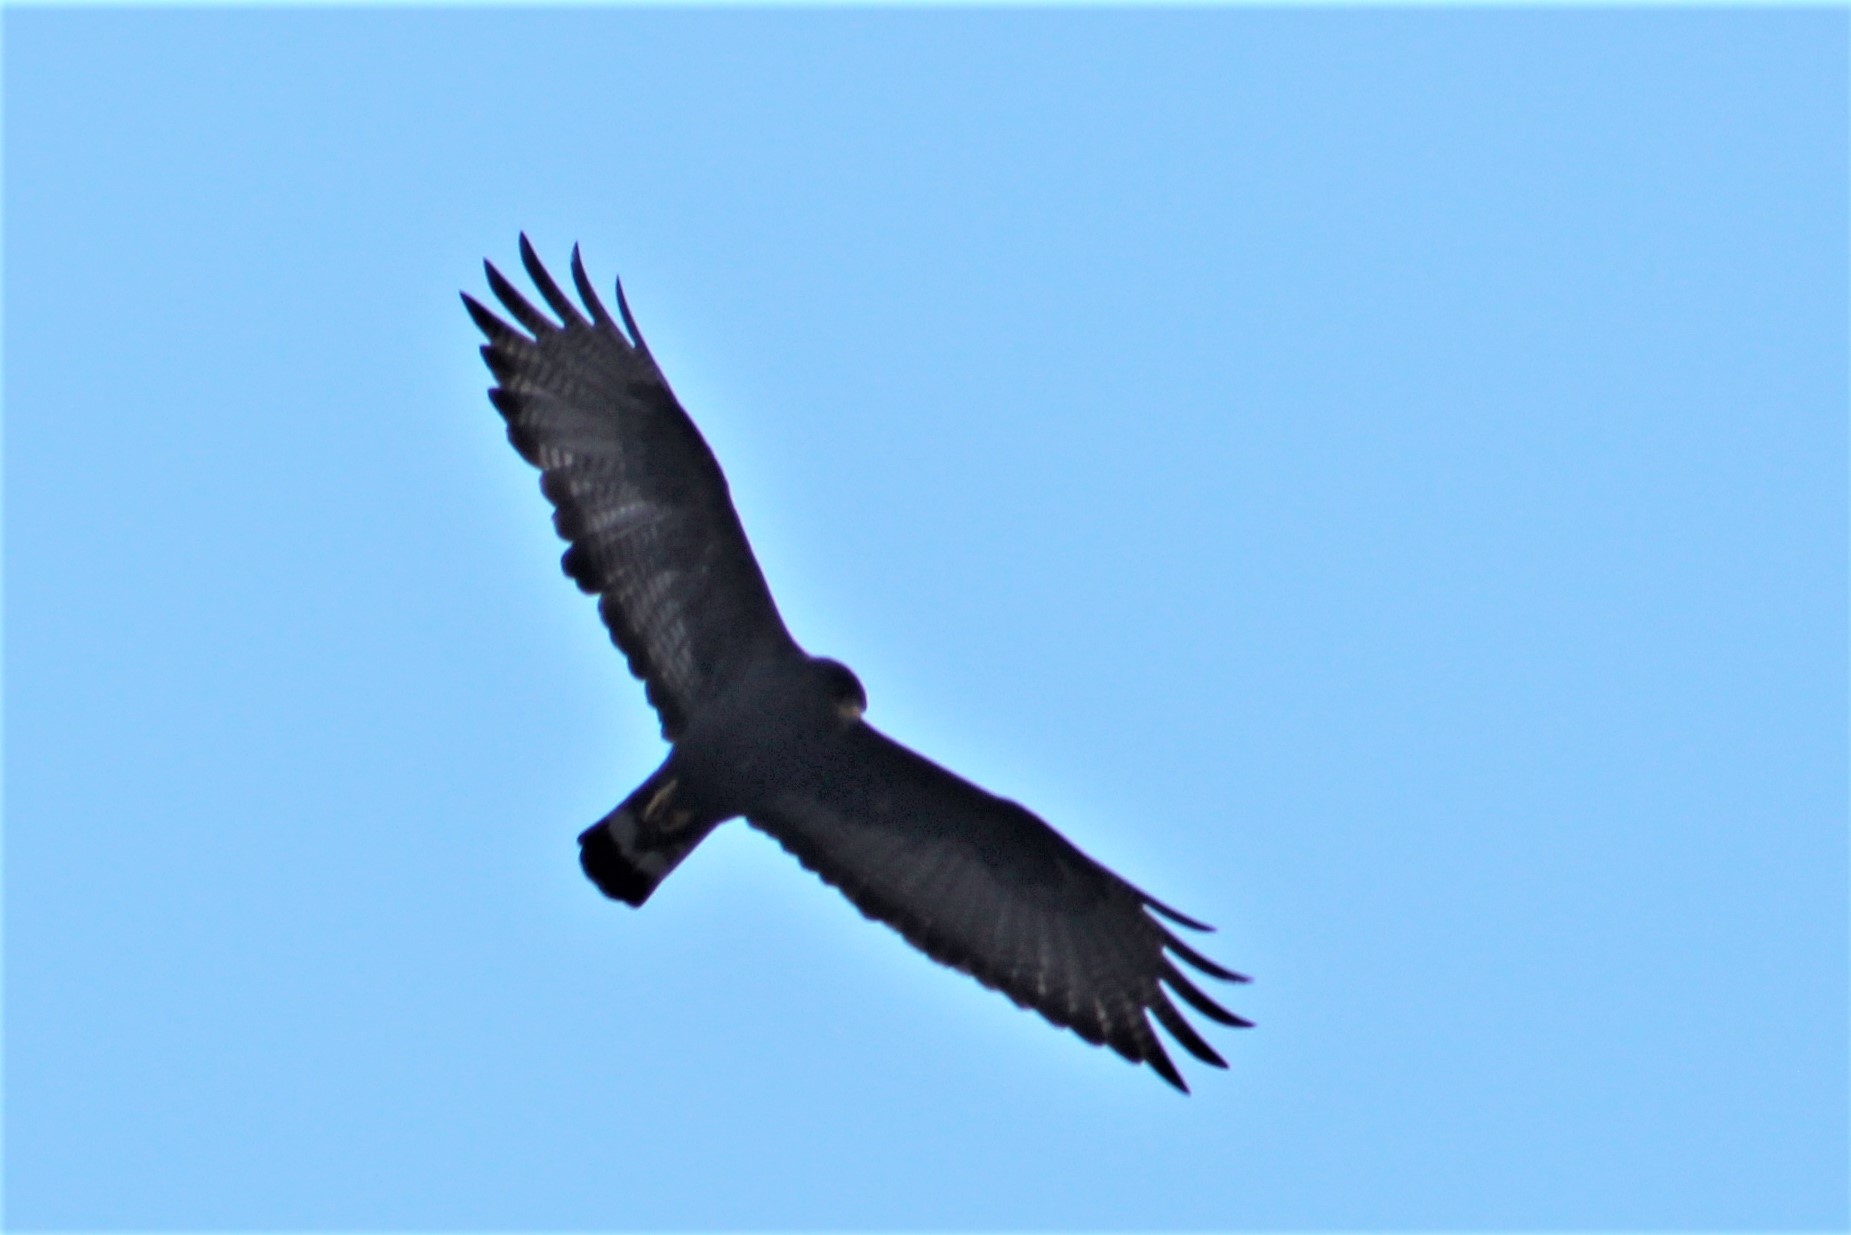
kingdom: Animalia
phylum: Chordata
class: Aves
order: Accipitriformes
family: Accipitridae
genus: Buteo
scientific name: Buteo albonotatus
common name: Zone-tailed hawk
